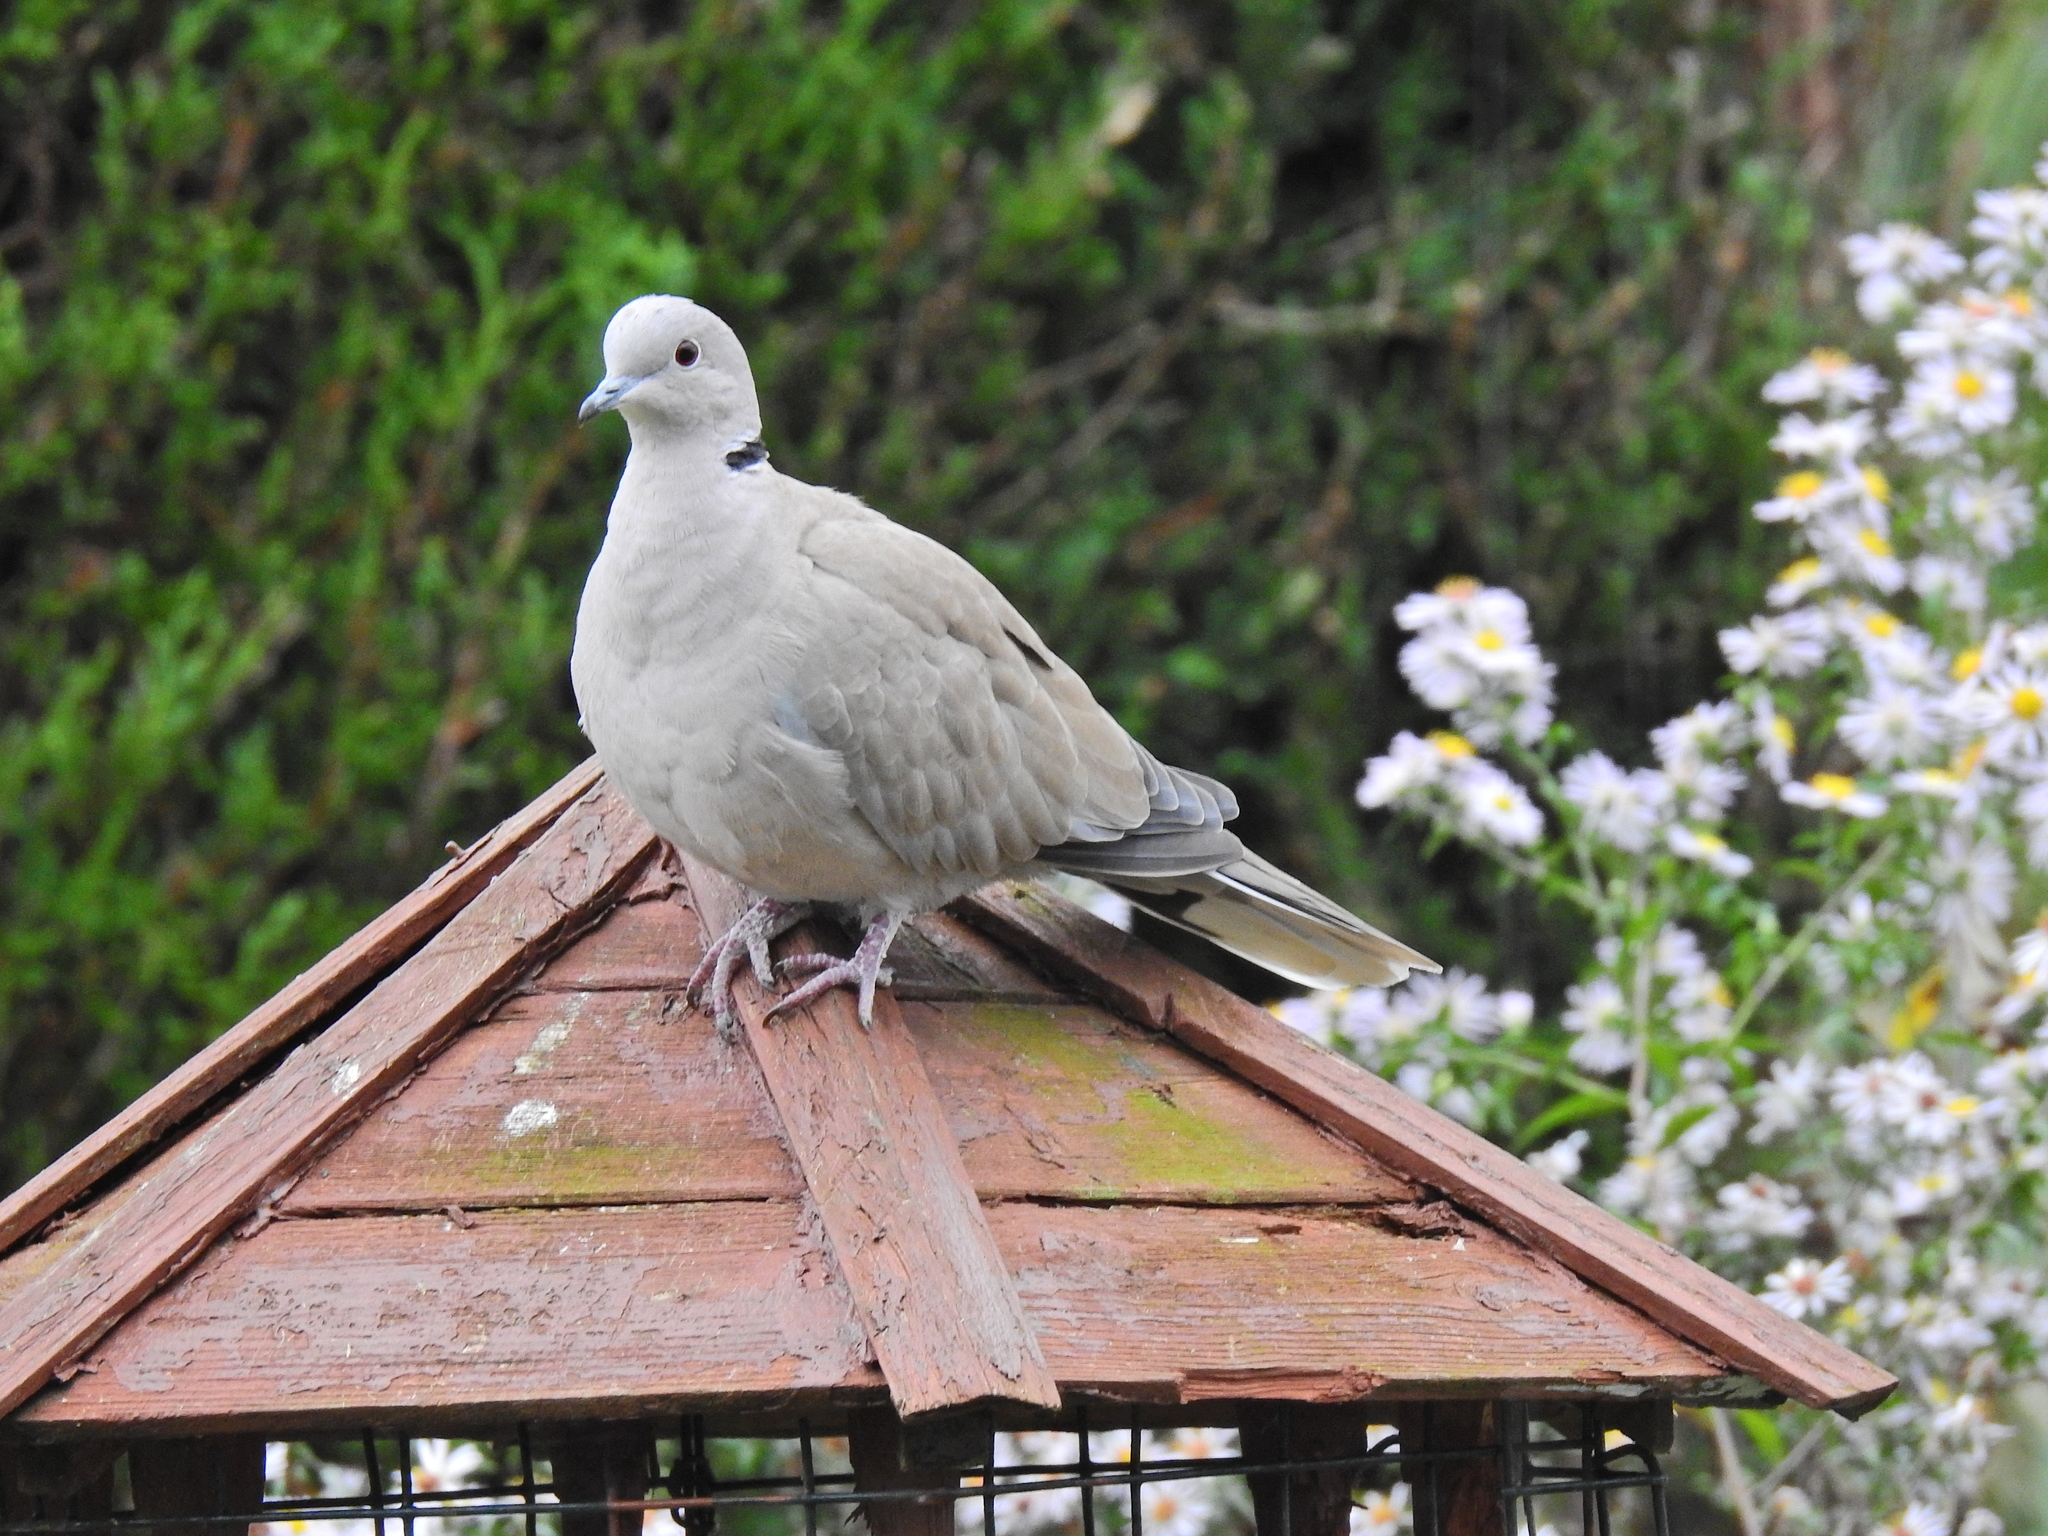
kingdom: Animalia
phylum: Chordata
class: Aves
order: Columbiformes
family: Columbidae
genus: Streptopelia
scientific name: Streptopelia decaocto
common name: Eurasian collared dove
